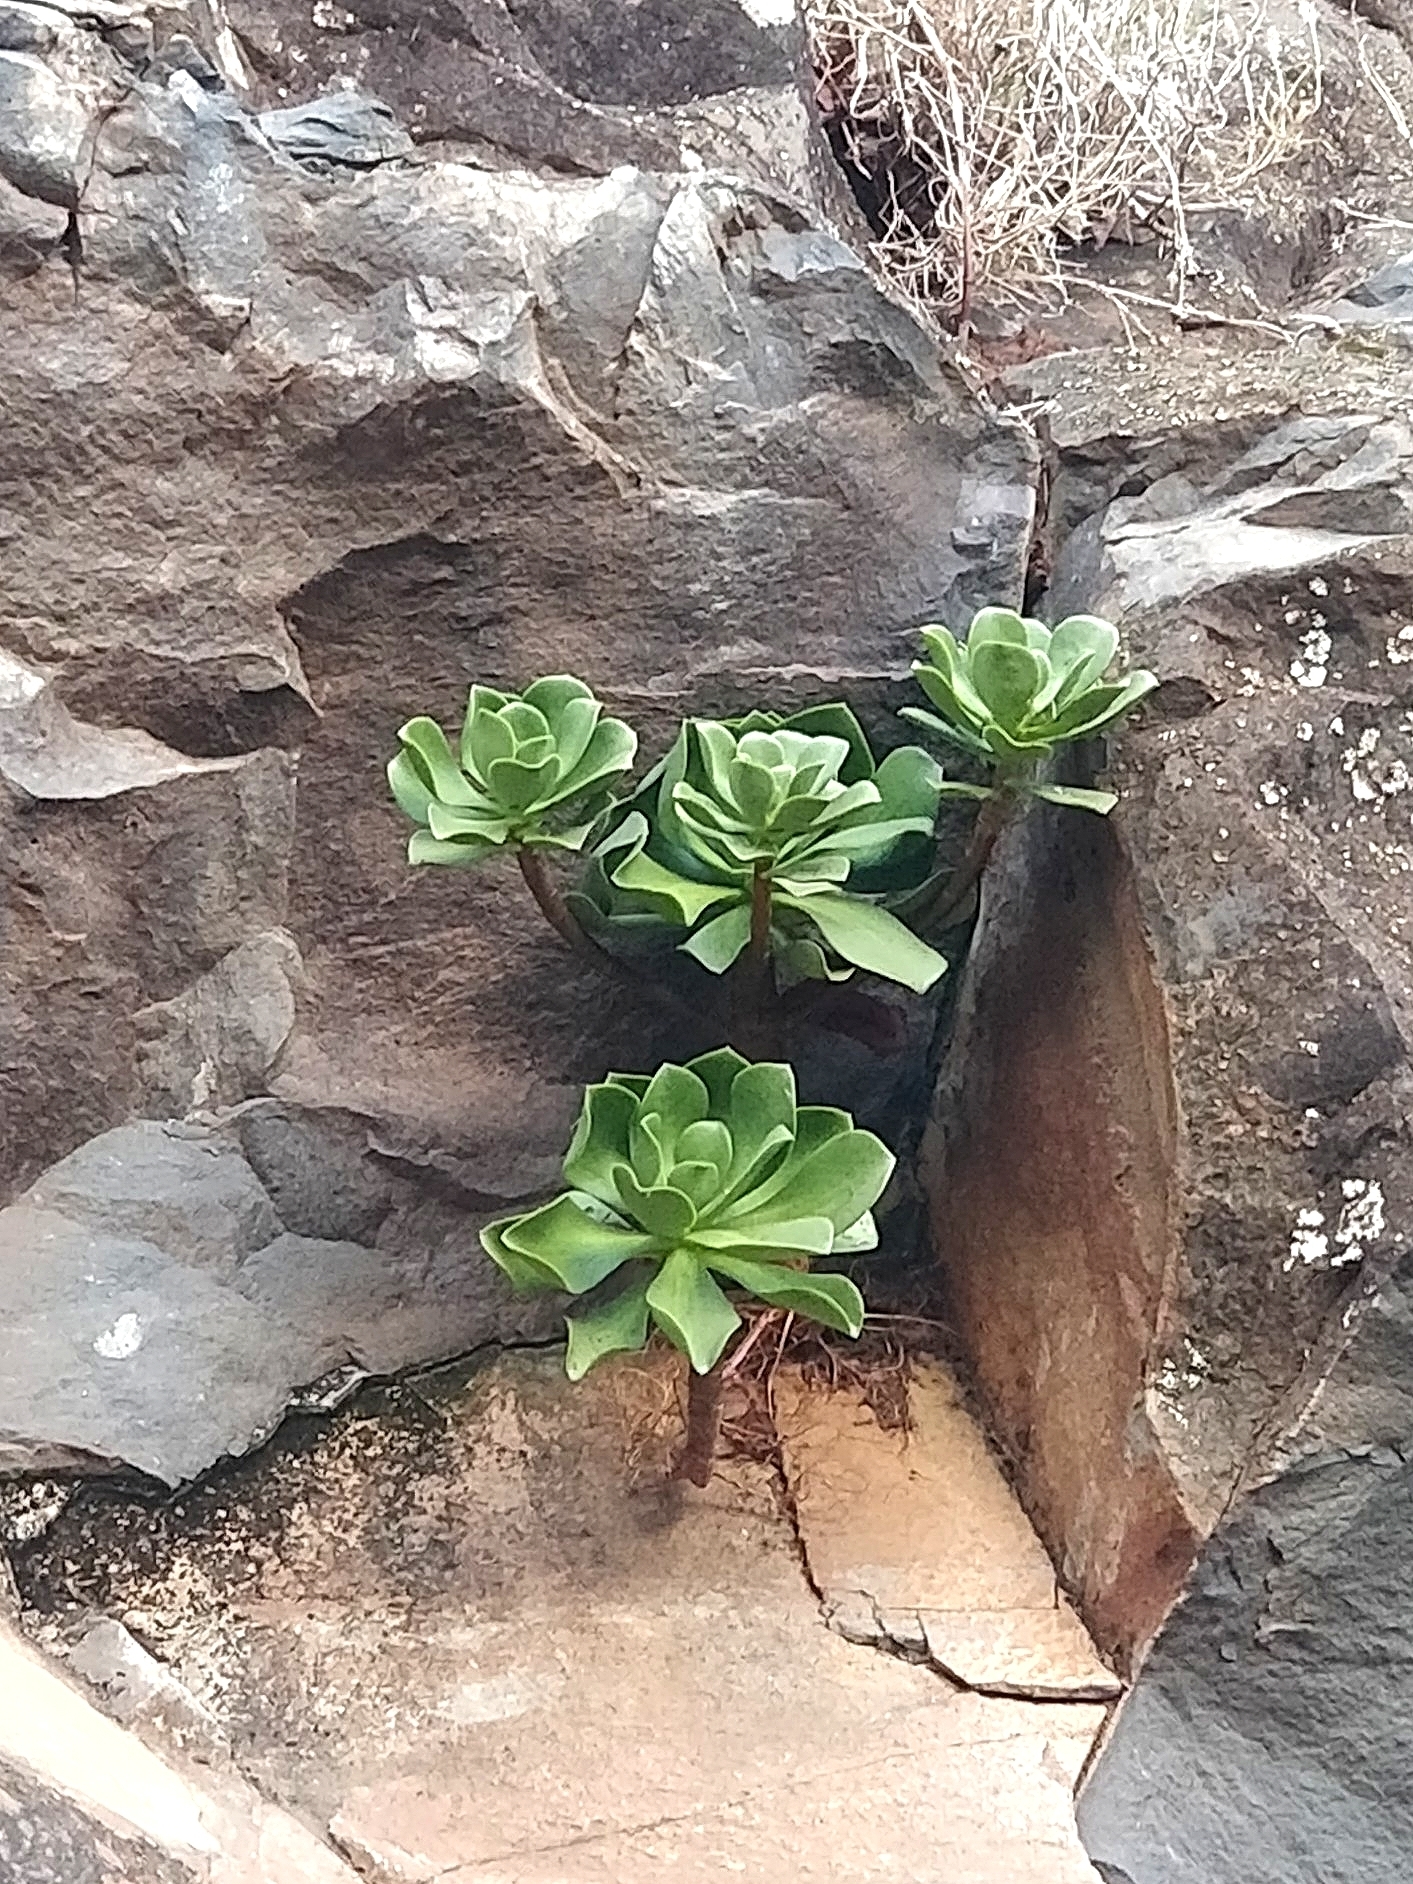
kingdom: Plantae
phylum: Tracheophyta
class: Magnoliopsida
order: Saxifragales
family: Crassulaceae
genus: Aeonium
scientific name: Aeonium glutinosum
